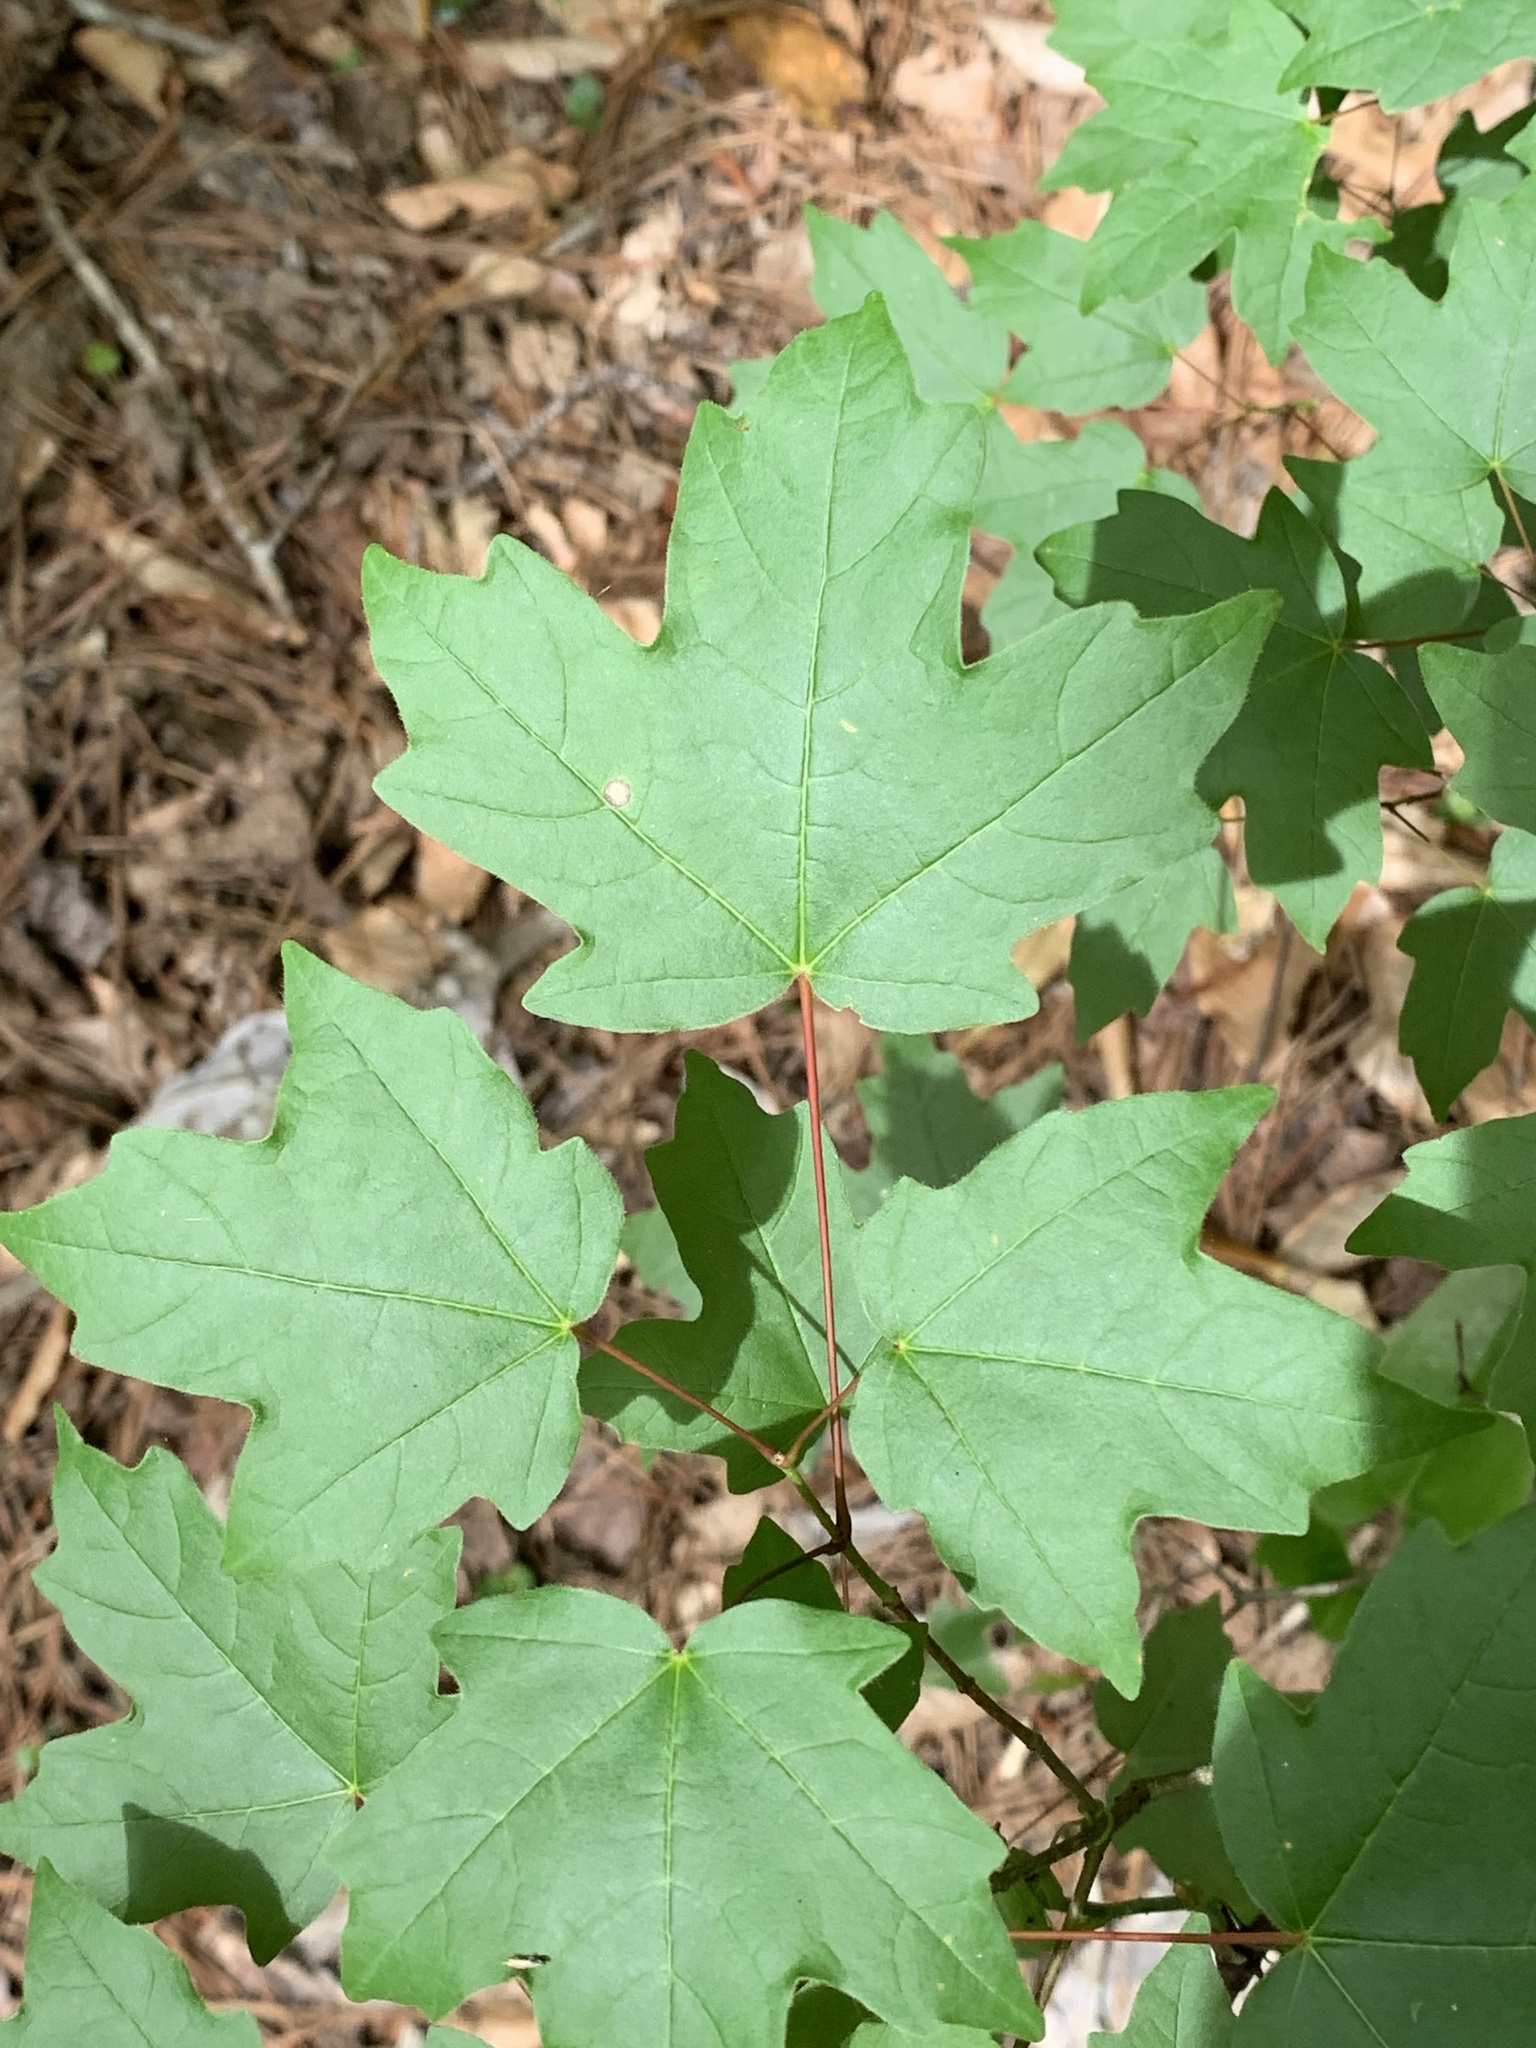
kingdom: Plantae
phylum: Tracheophyta
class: Magnoliopsida
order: Sapindales
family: Sapindaceae
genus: Acer
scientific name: Acer floridanum
